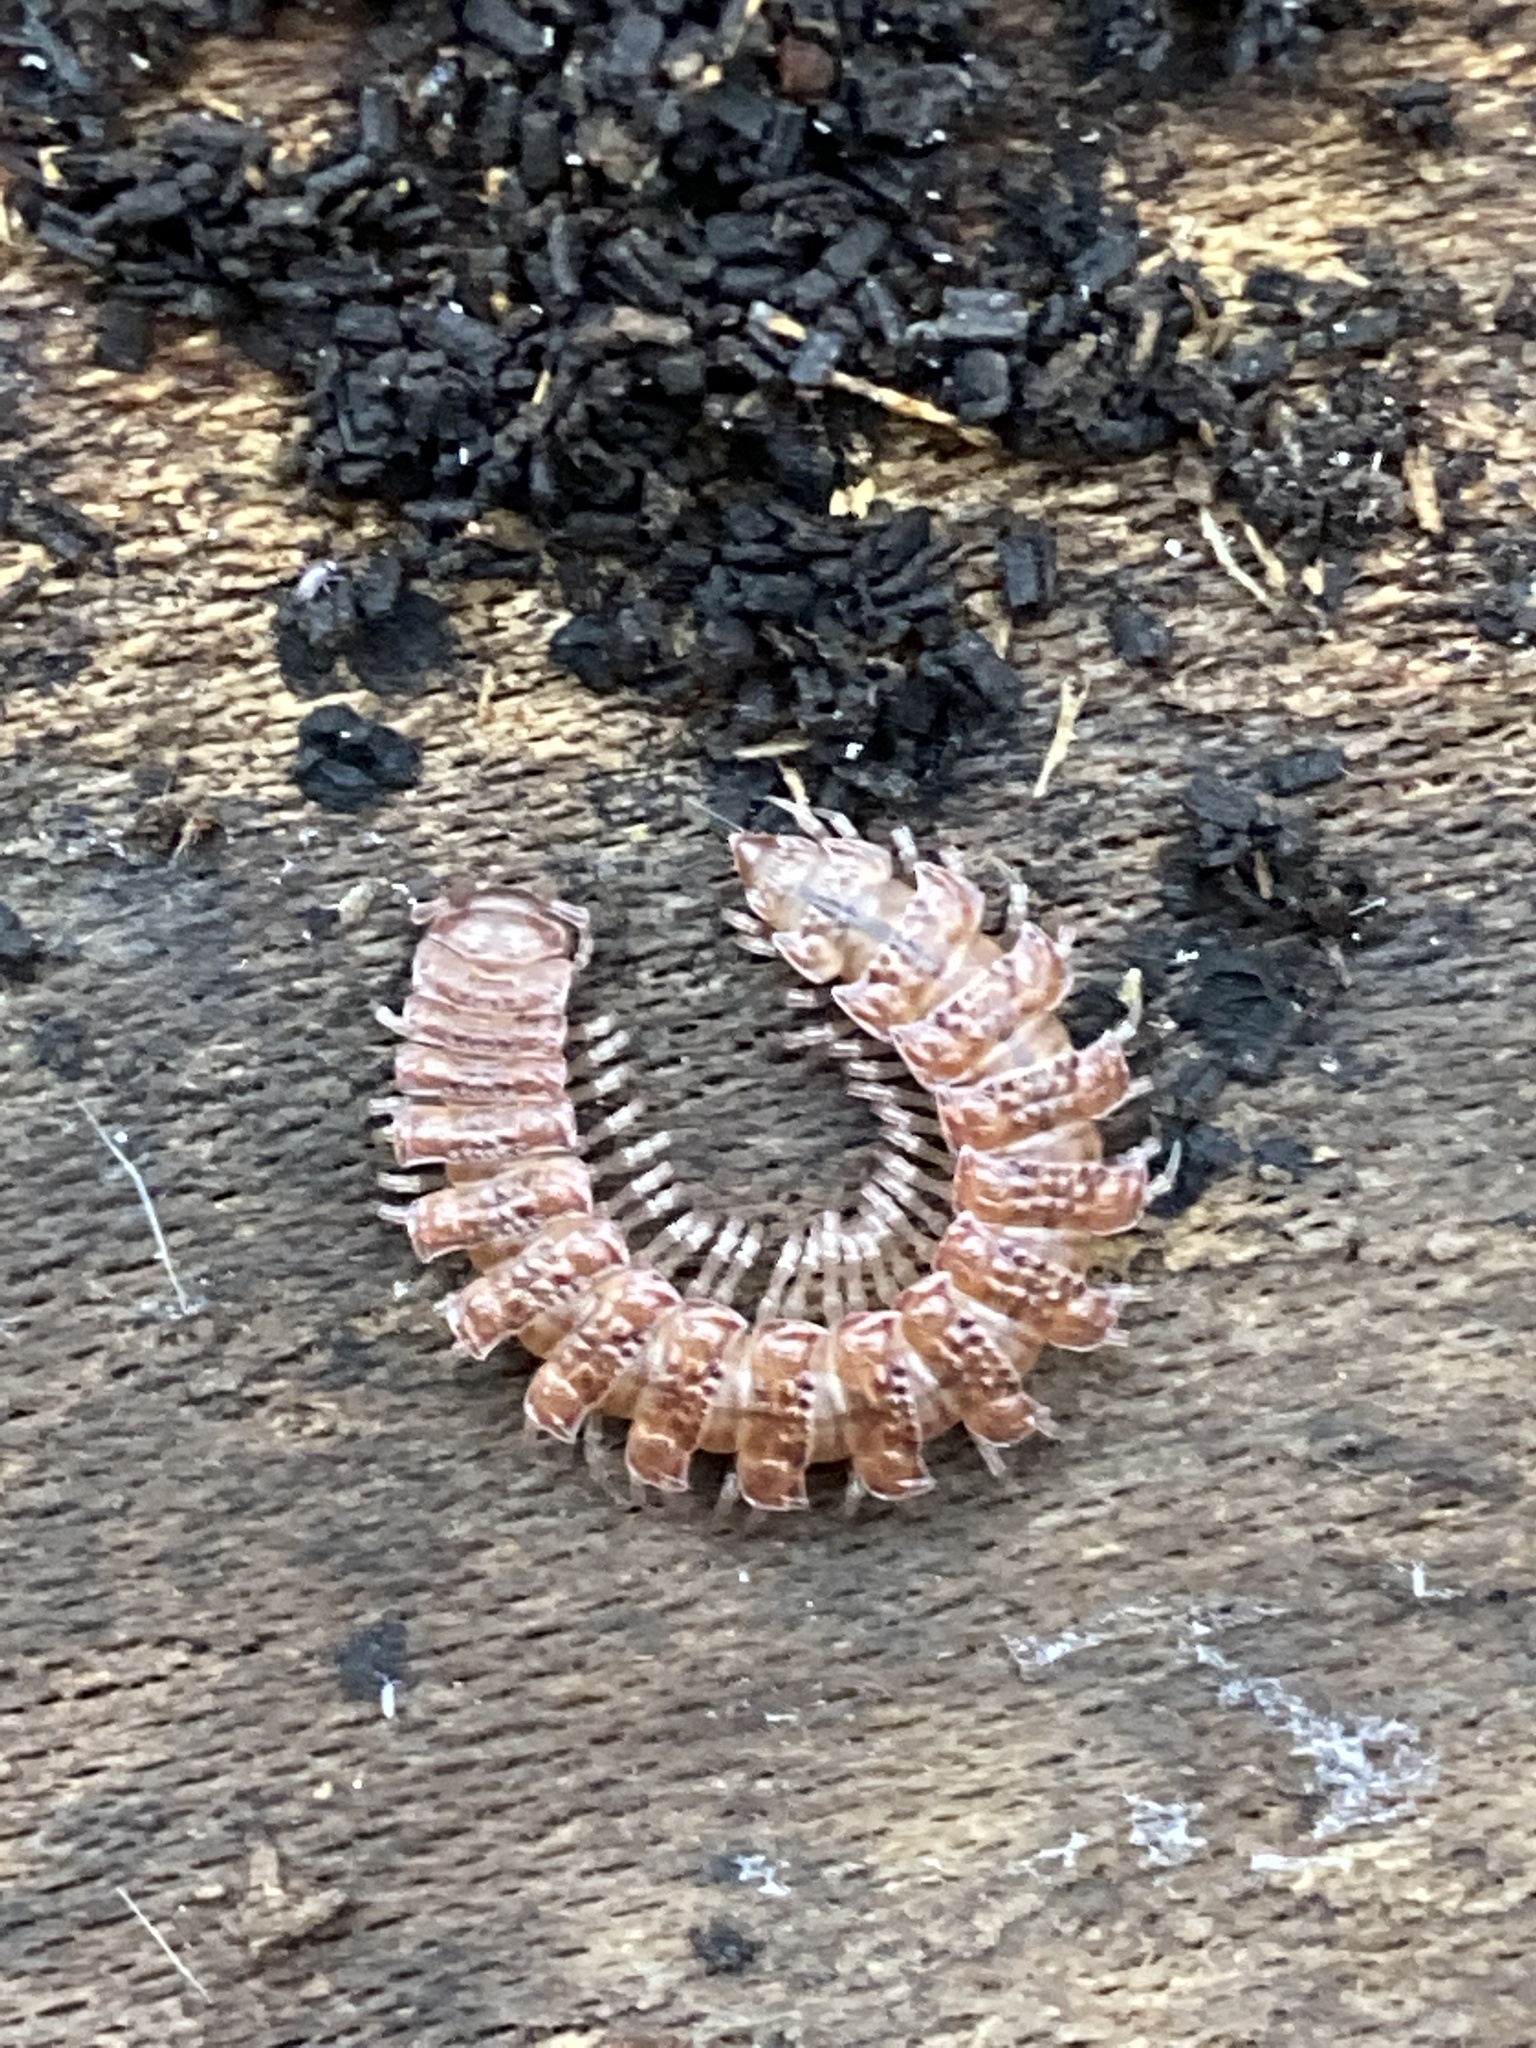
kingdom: Animalia
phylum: Arthropoda
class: Diplopoda
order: Polydesmida
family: Polydesmidae
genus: Polydesmus
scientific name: Polydesmus angustus
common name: Flat millipede
